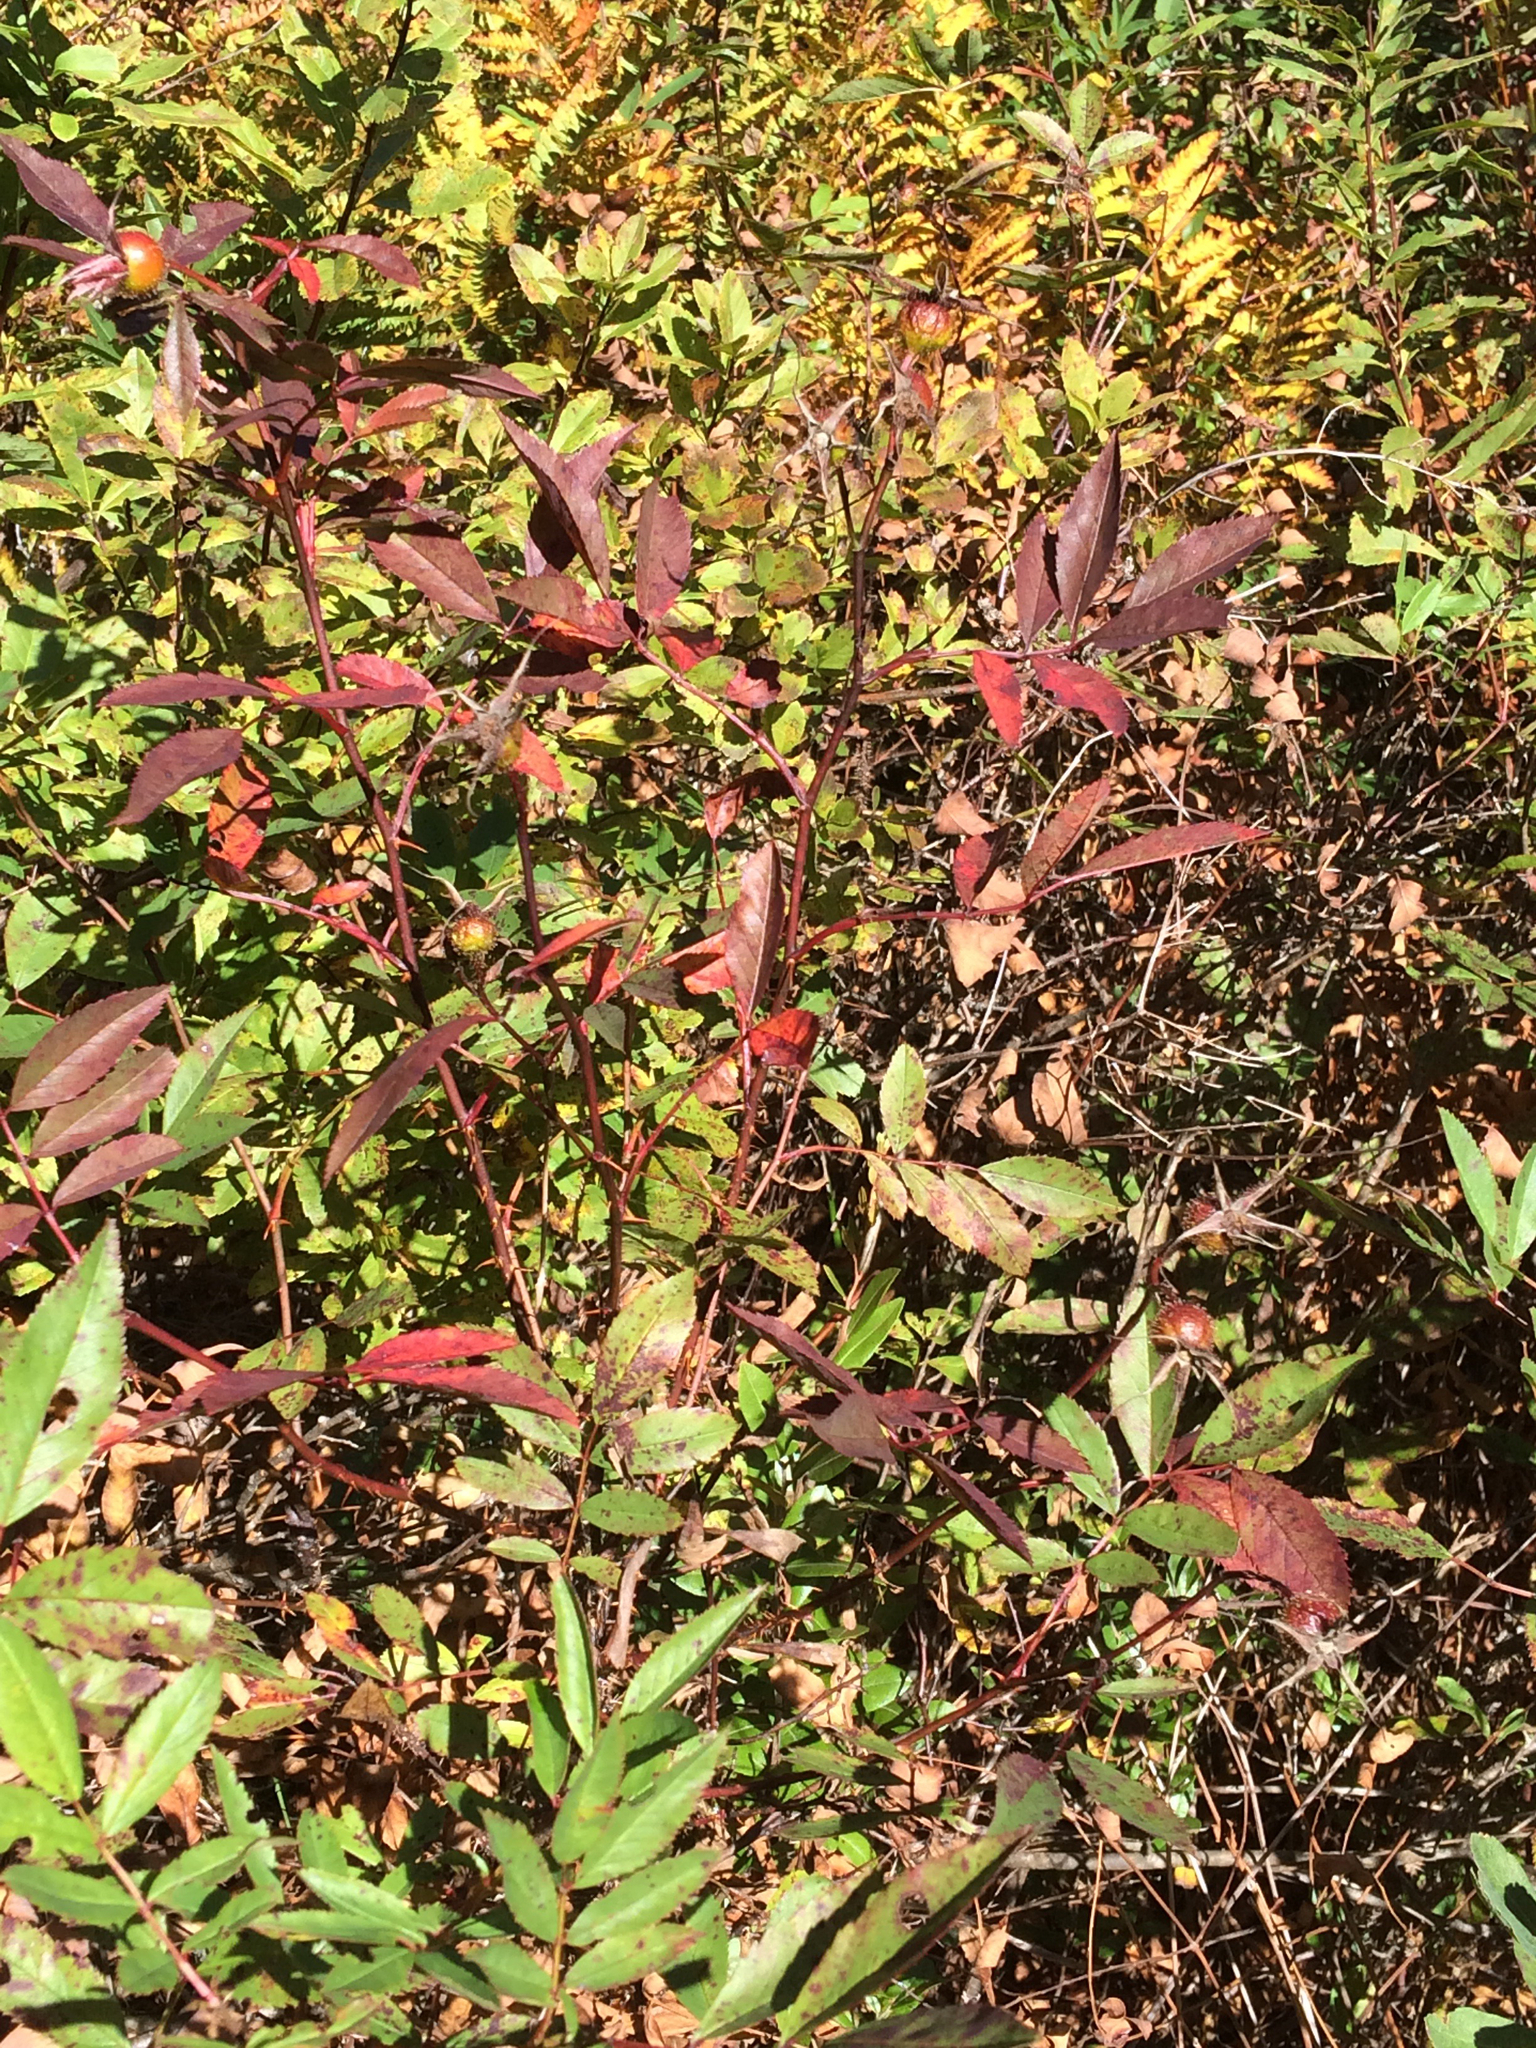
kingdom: Plantae
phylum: Tracheophyta
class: Magnoliopsida
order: Rosales
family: Rosaceae
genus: Rosa
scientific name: Rosa palustris
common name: Swamp rose
